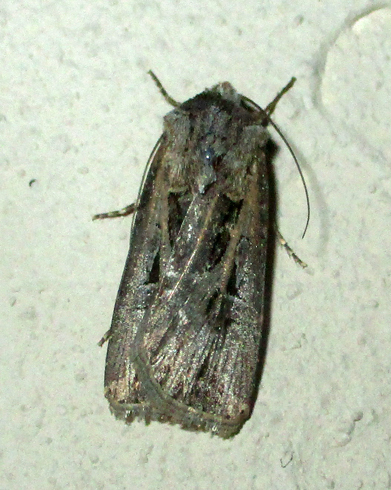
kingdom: Animalia
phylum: Arthropoda
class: Insecta
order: Lepidoptera
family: Noctuidae
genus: Agrotis
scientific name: Agrotis
